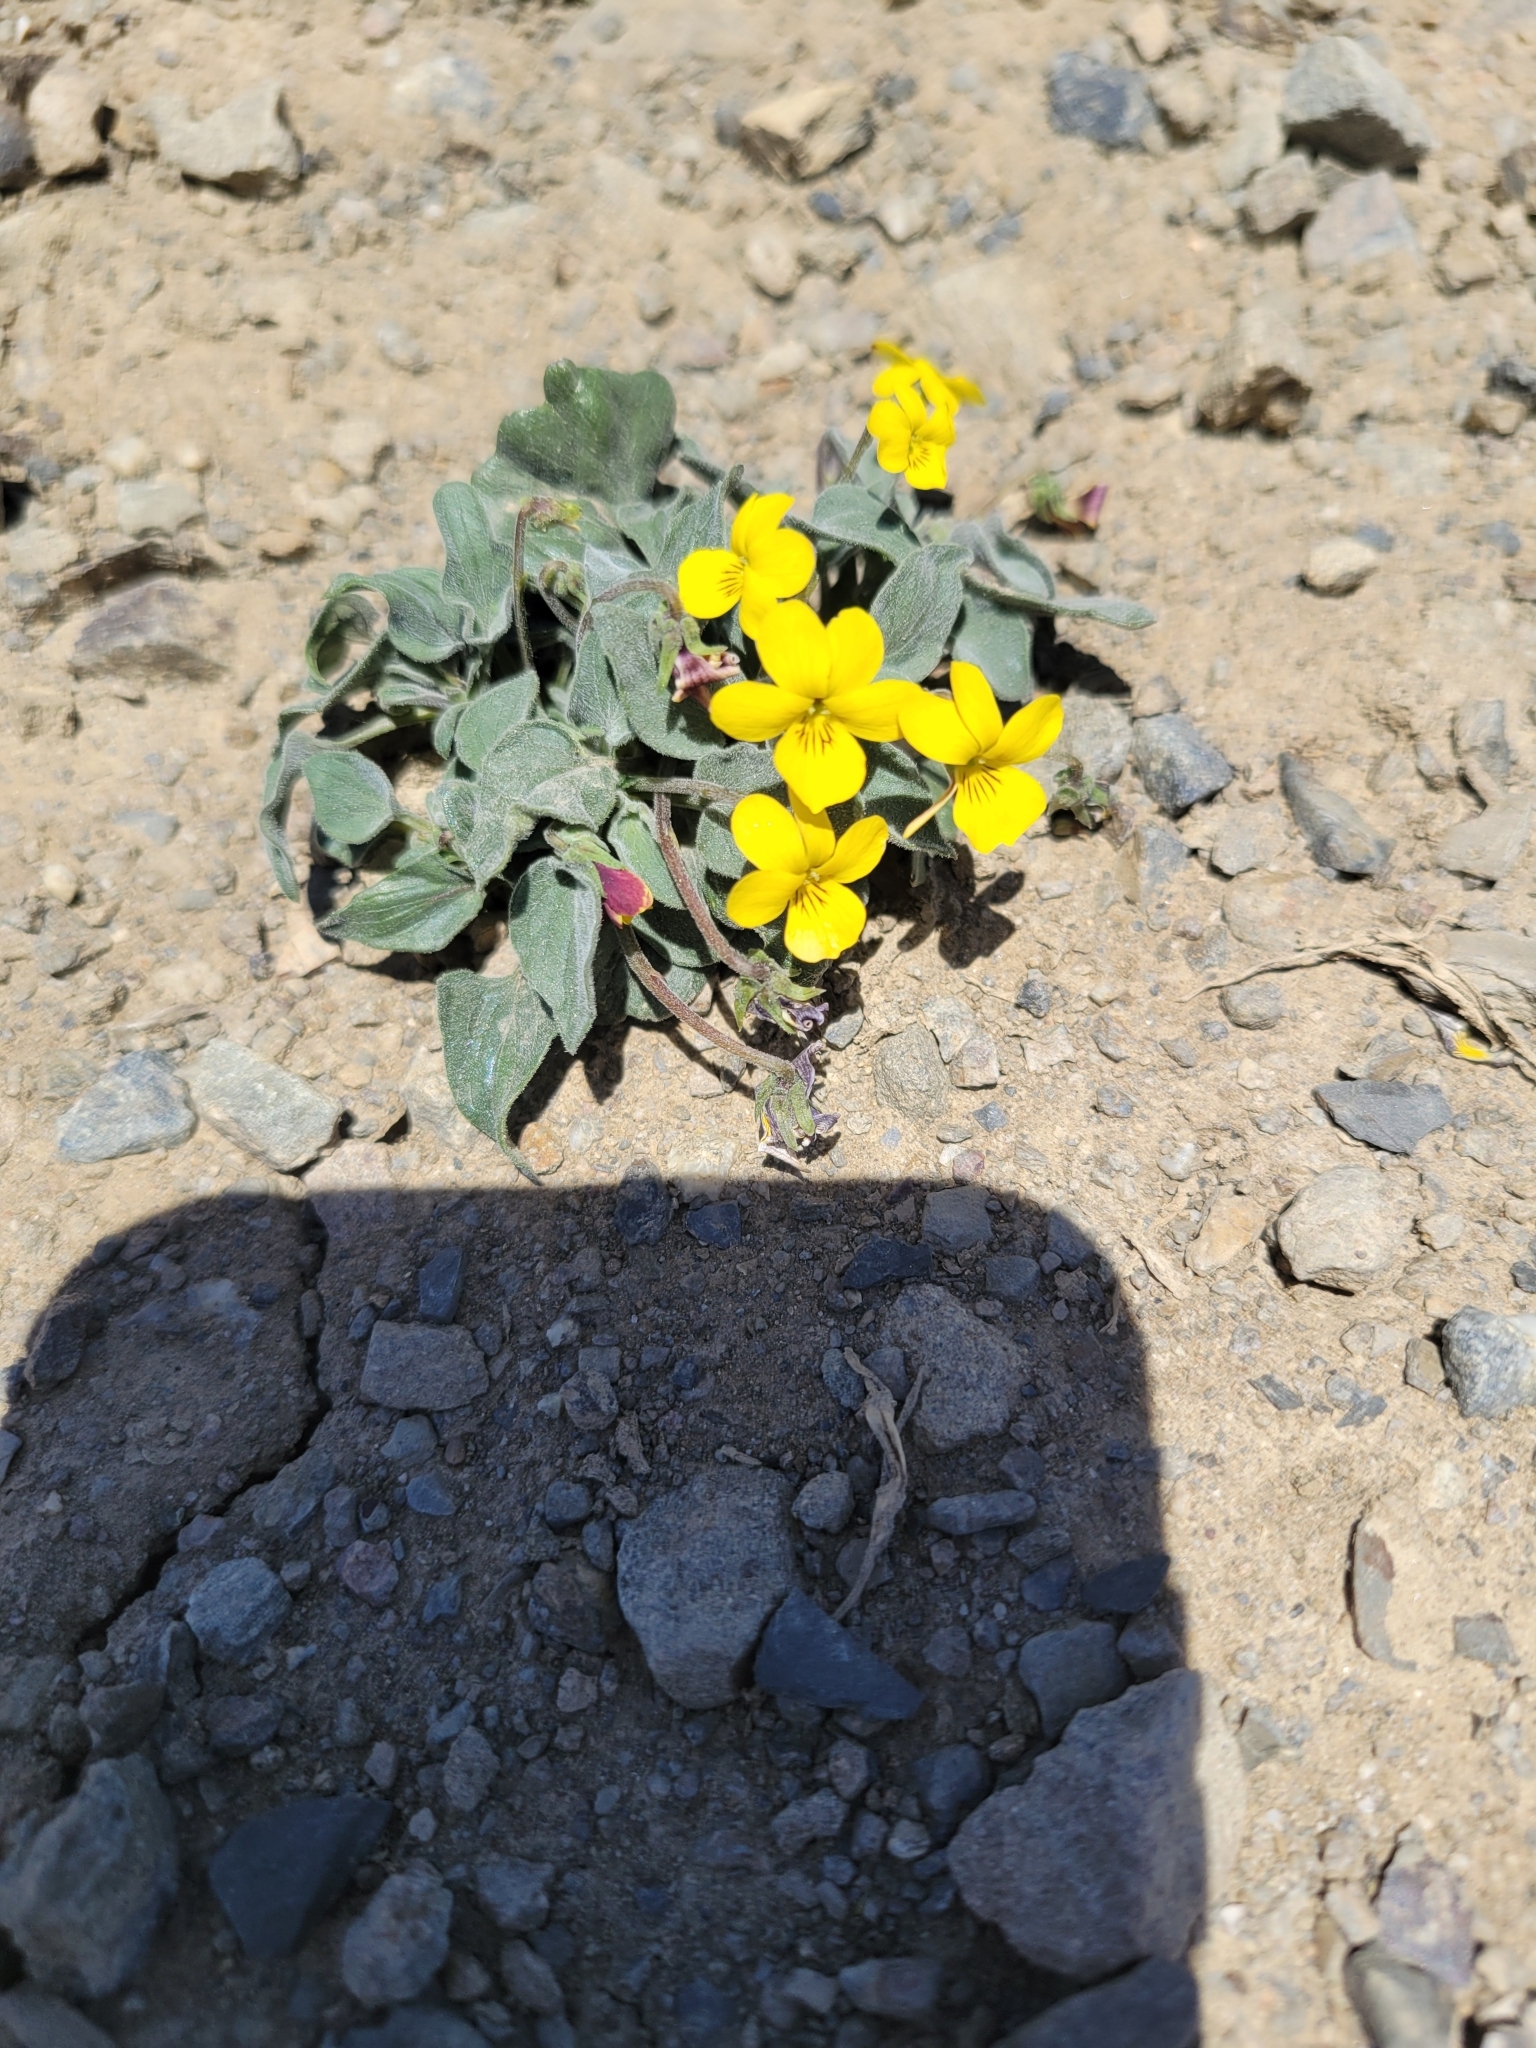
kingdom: Plantae
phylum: Tracheophyta
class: Magnoliopsida
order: Malpighiales
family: Violaceae
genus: Viola
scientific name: Viola purpurea
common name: Pine violet
